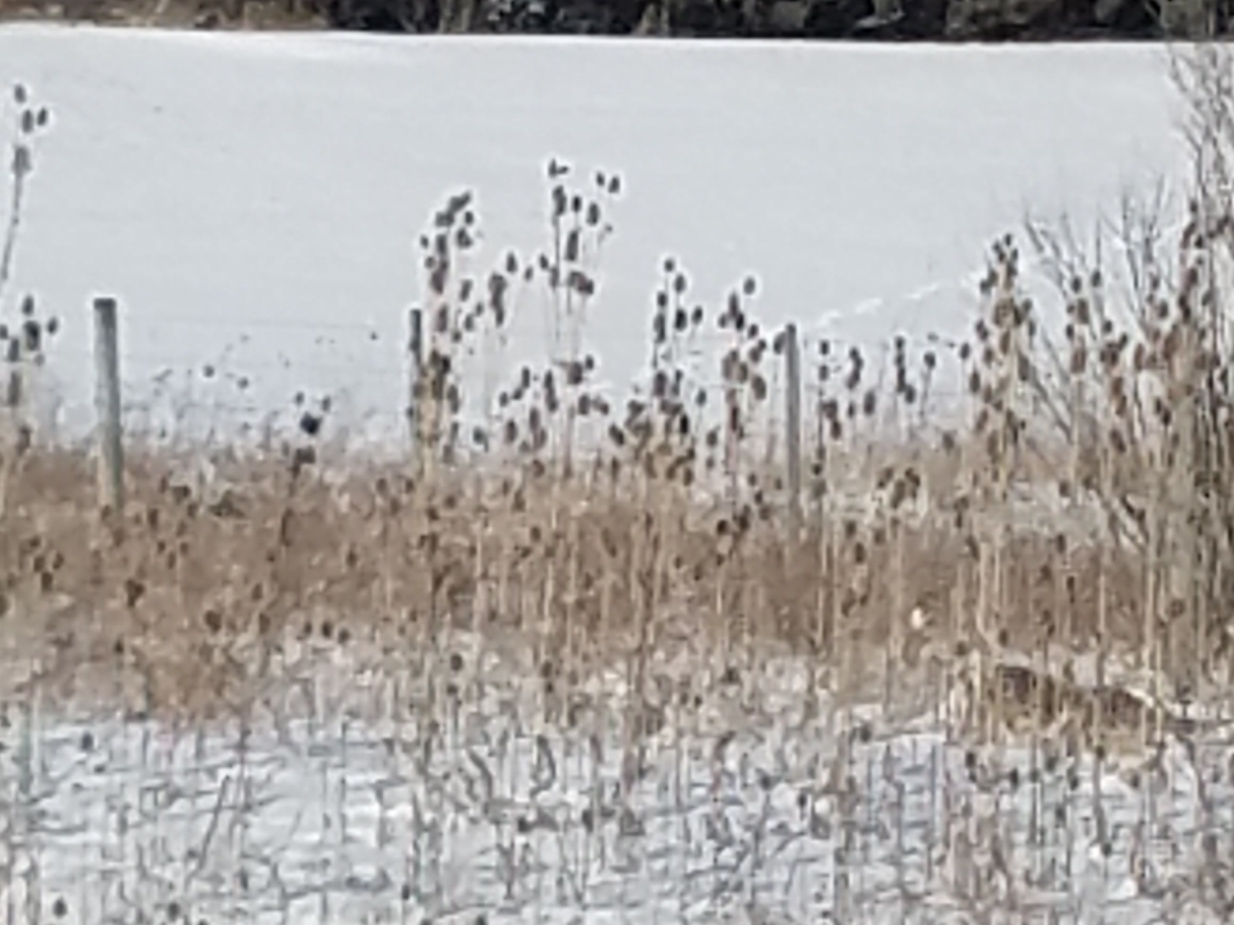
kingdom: Plantae
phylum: Tracheophyta
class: Magnoliopsida
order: Dipsacales
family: Caprifoliaceae
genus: Dipsacus
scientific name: Dipsacus laciniatus
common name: Cut-leaved teasel
